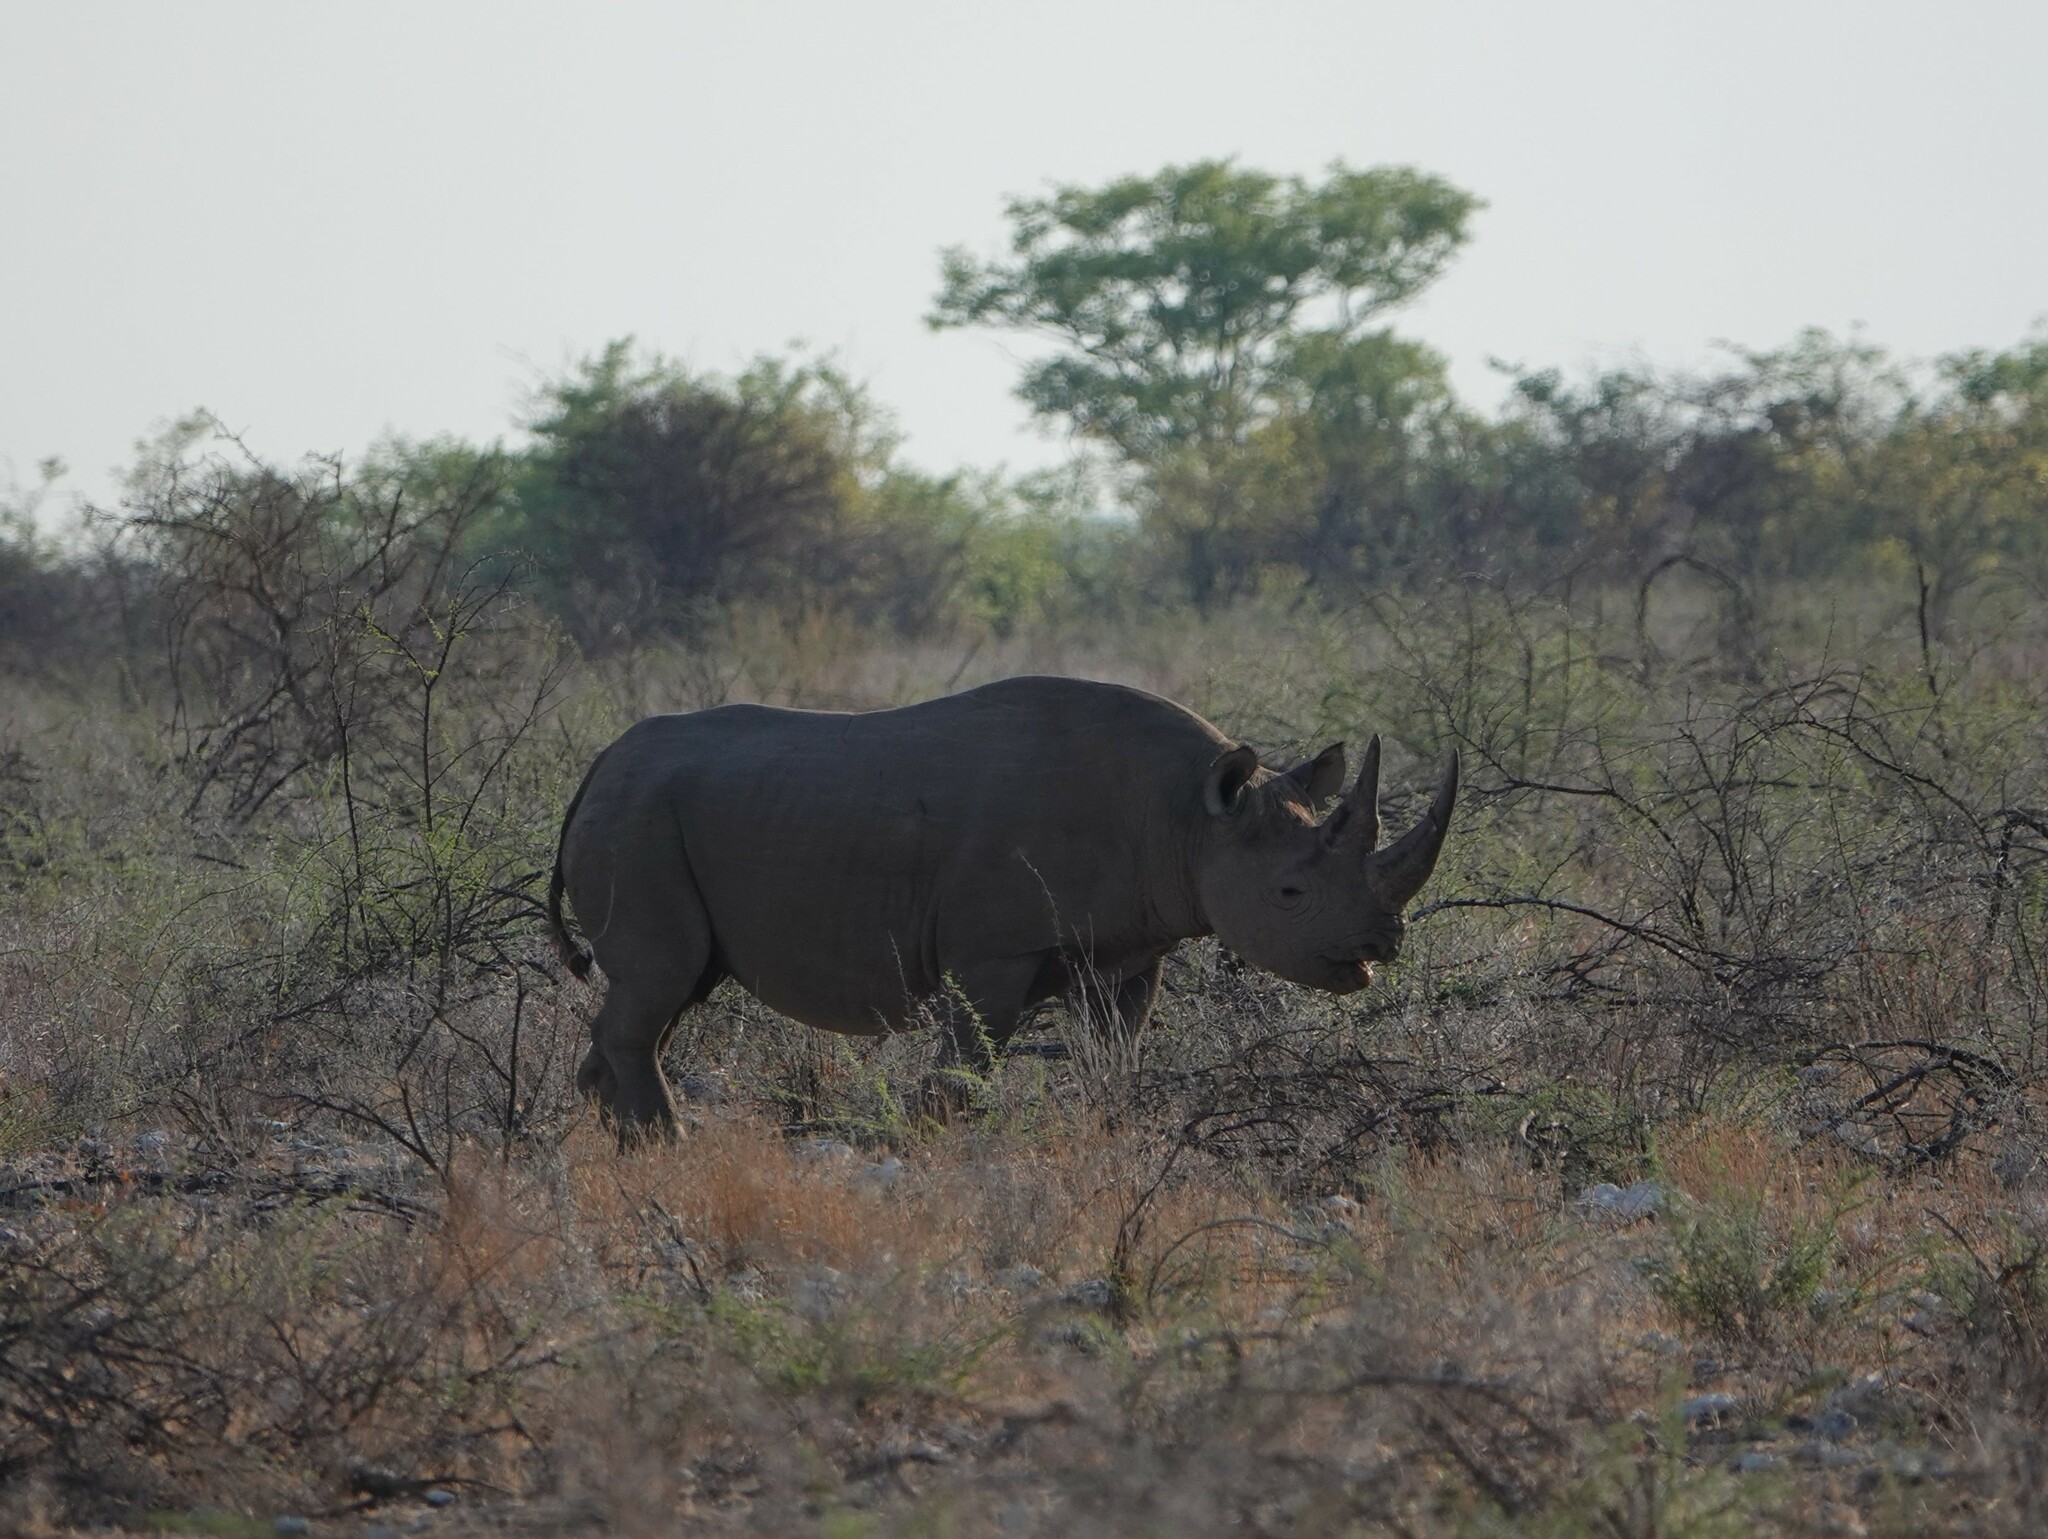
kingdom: Animalia
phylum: Chordata
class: Mammalia
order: Perissodactyla
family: Rhinocerotidae
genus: Diceros
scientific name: Diceros bicornis
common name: Black rhinoceros
